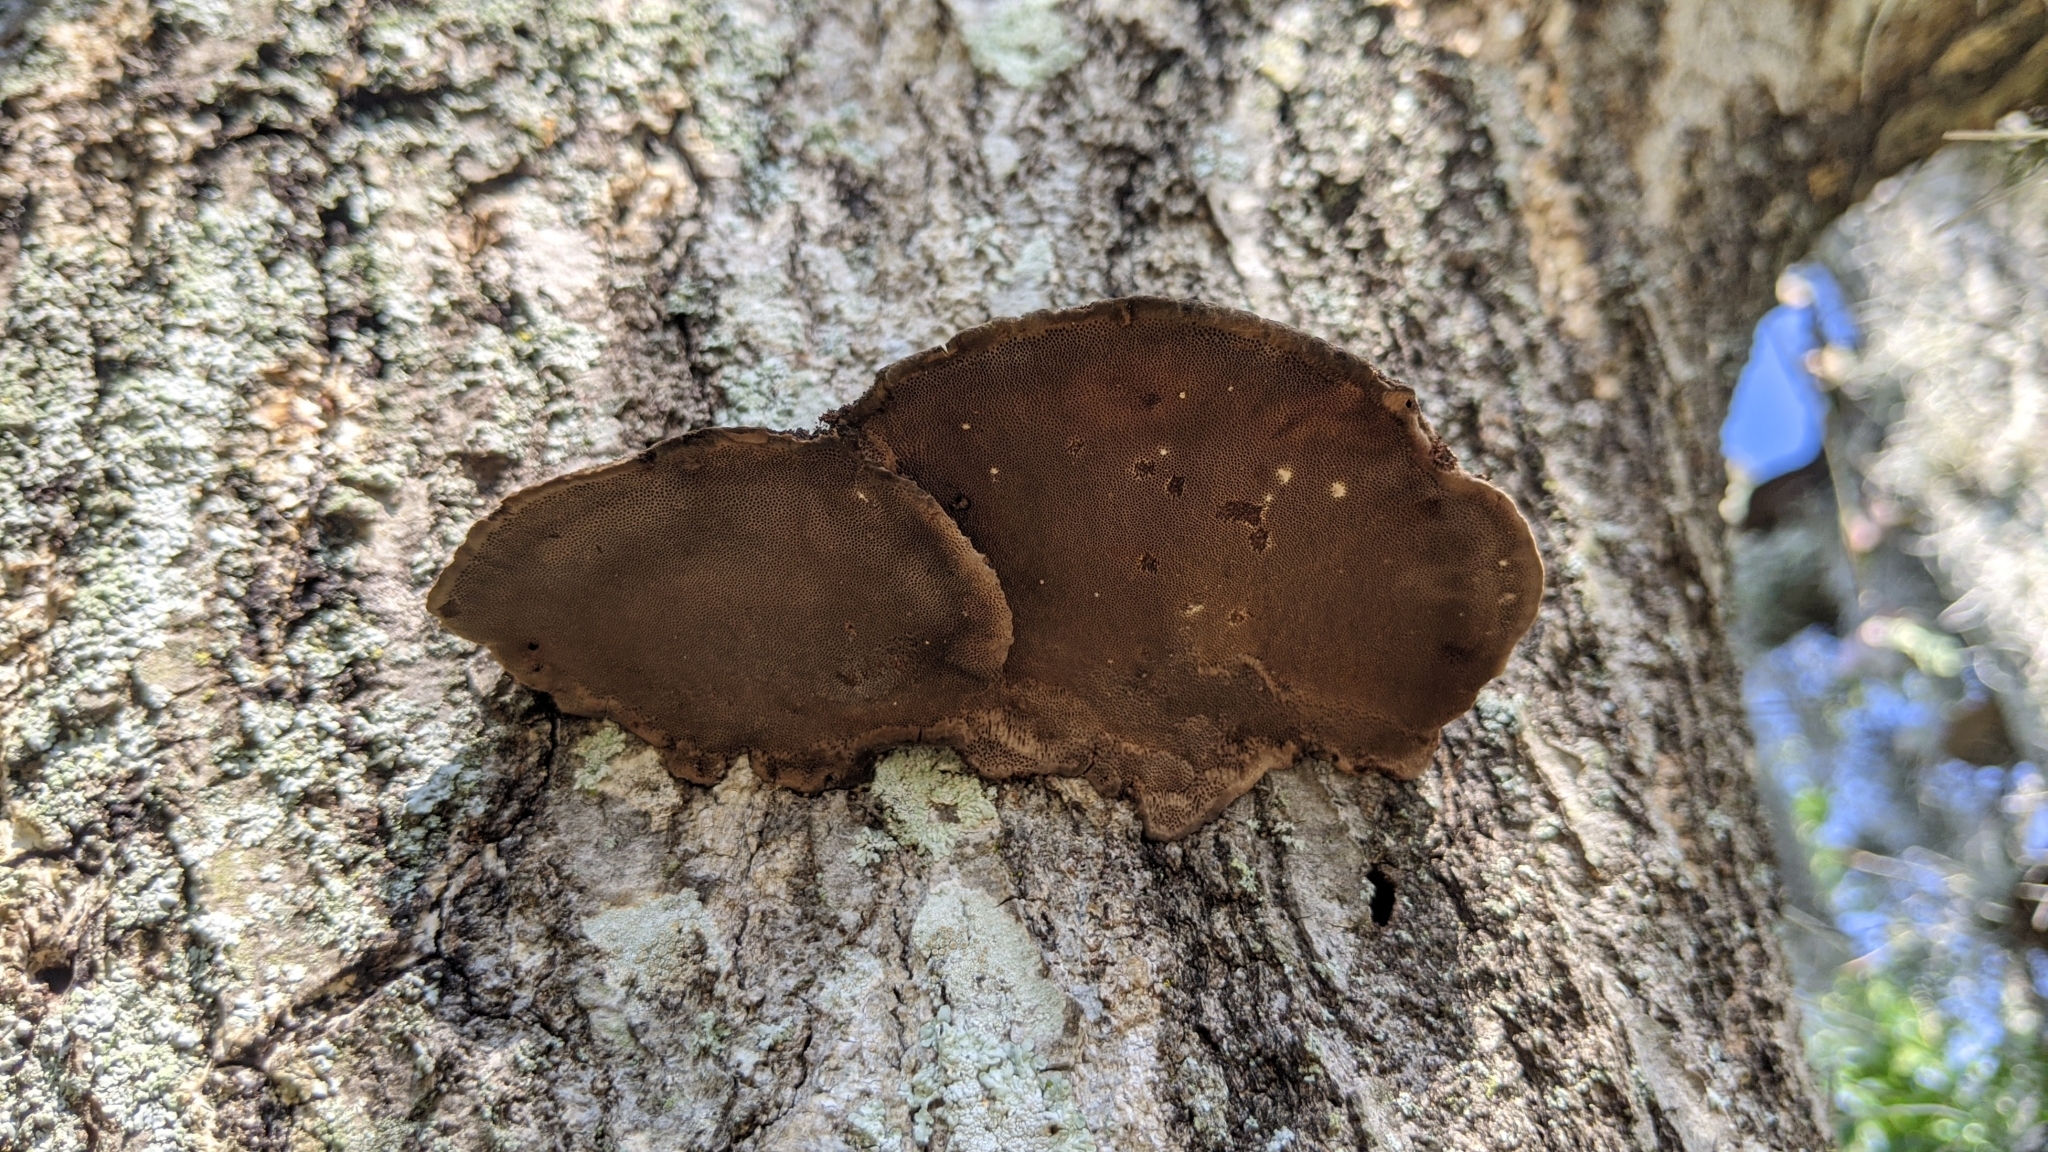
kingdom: Fungi
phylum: Basidiomycota
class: Agaricomycetes
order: Polyporales
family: Cerrenaceae
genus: Cerrena
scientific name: Cerrena hydnoides
